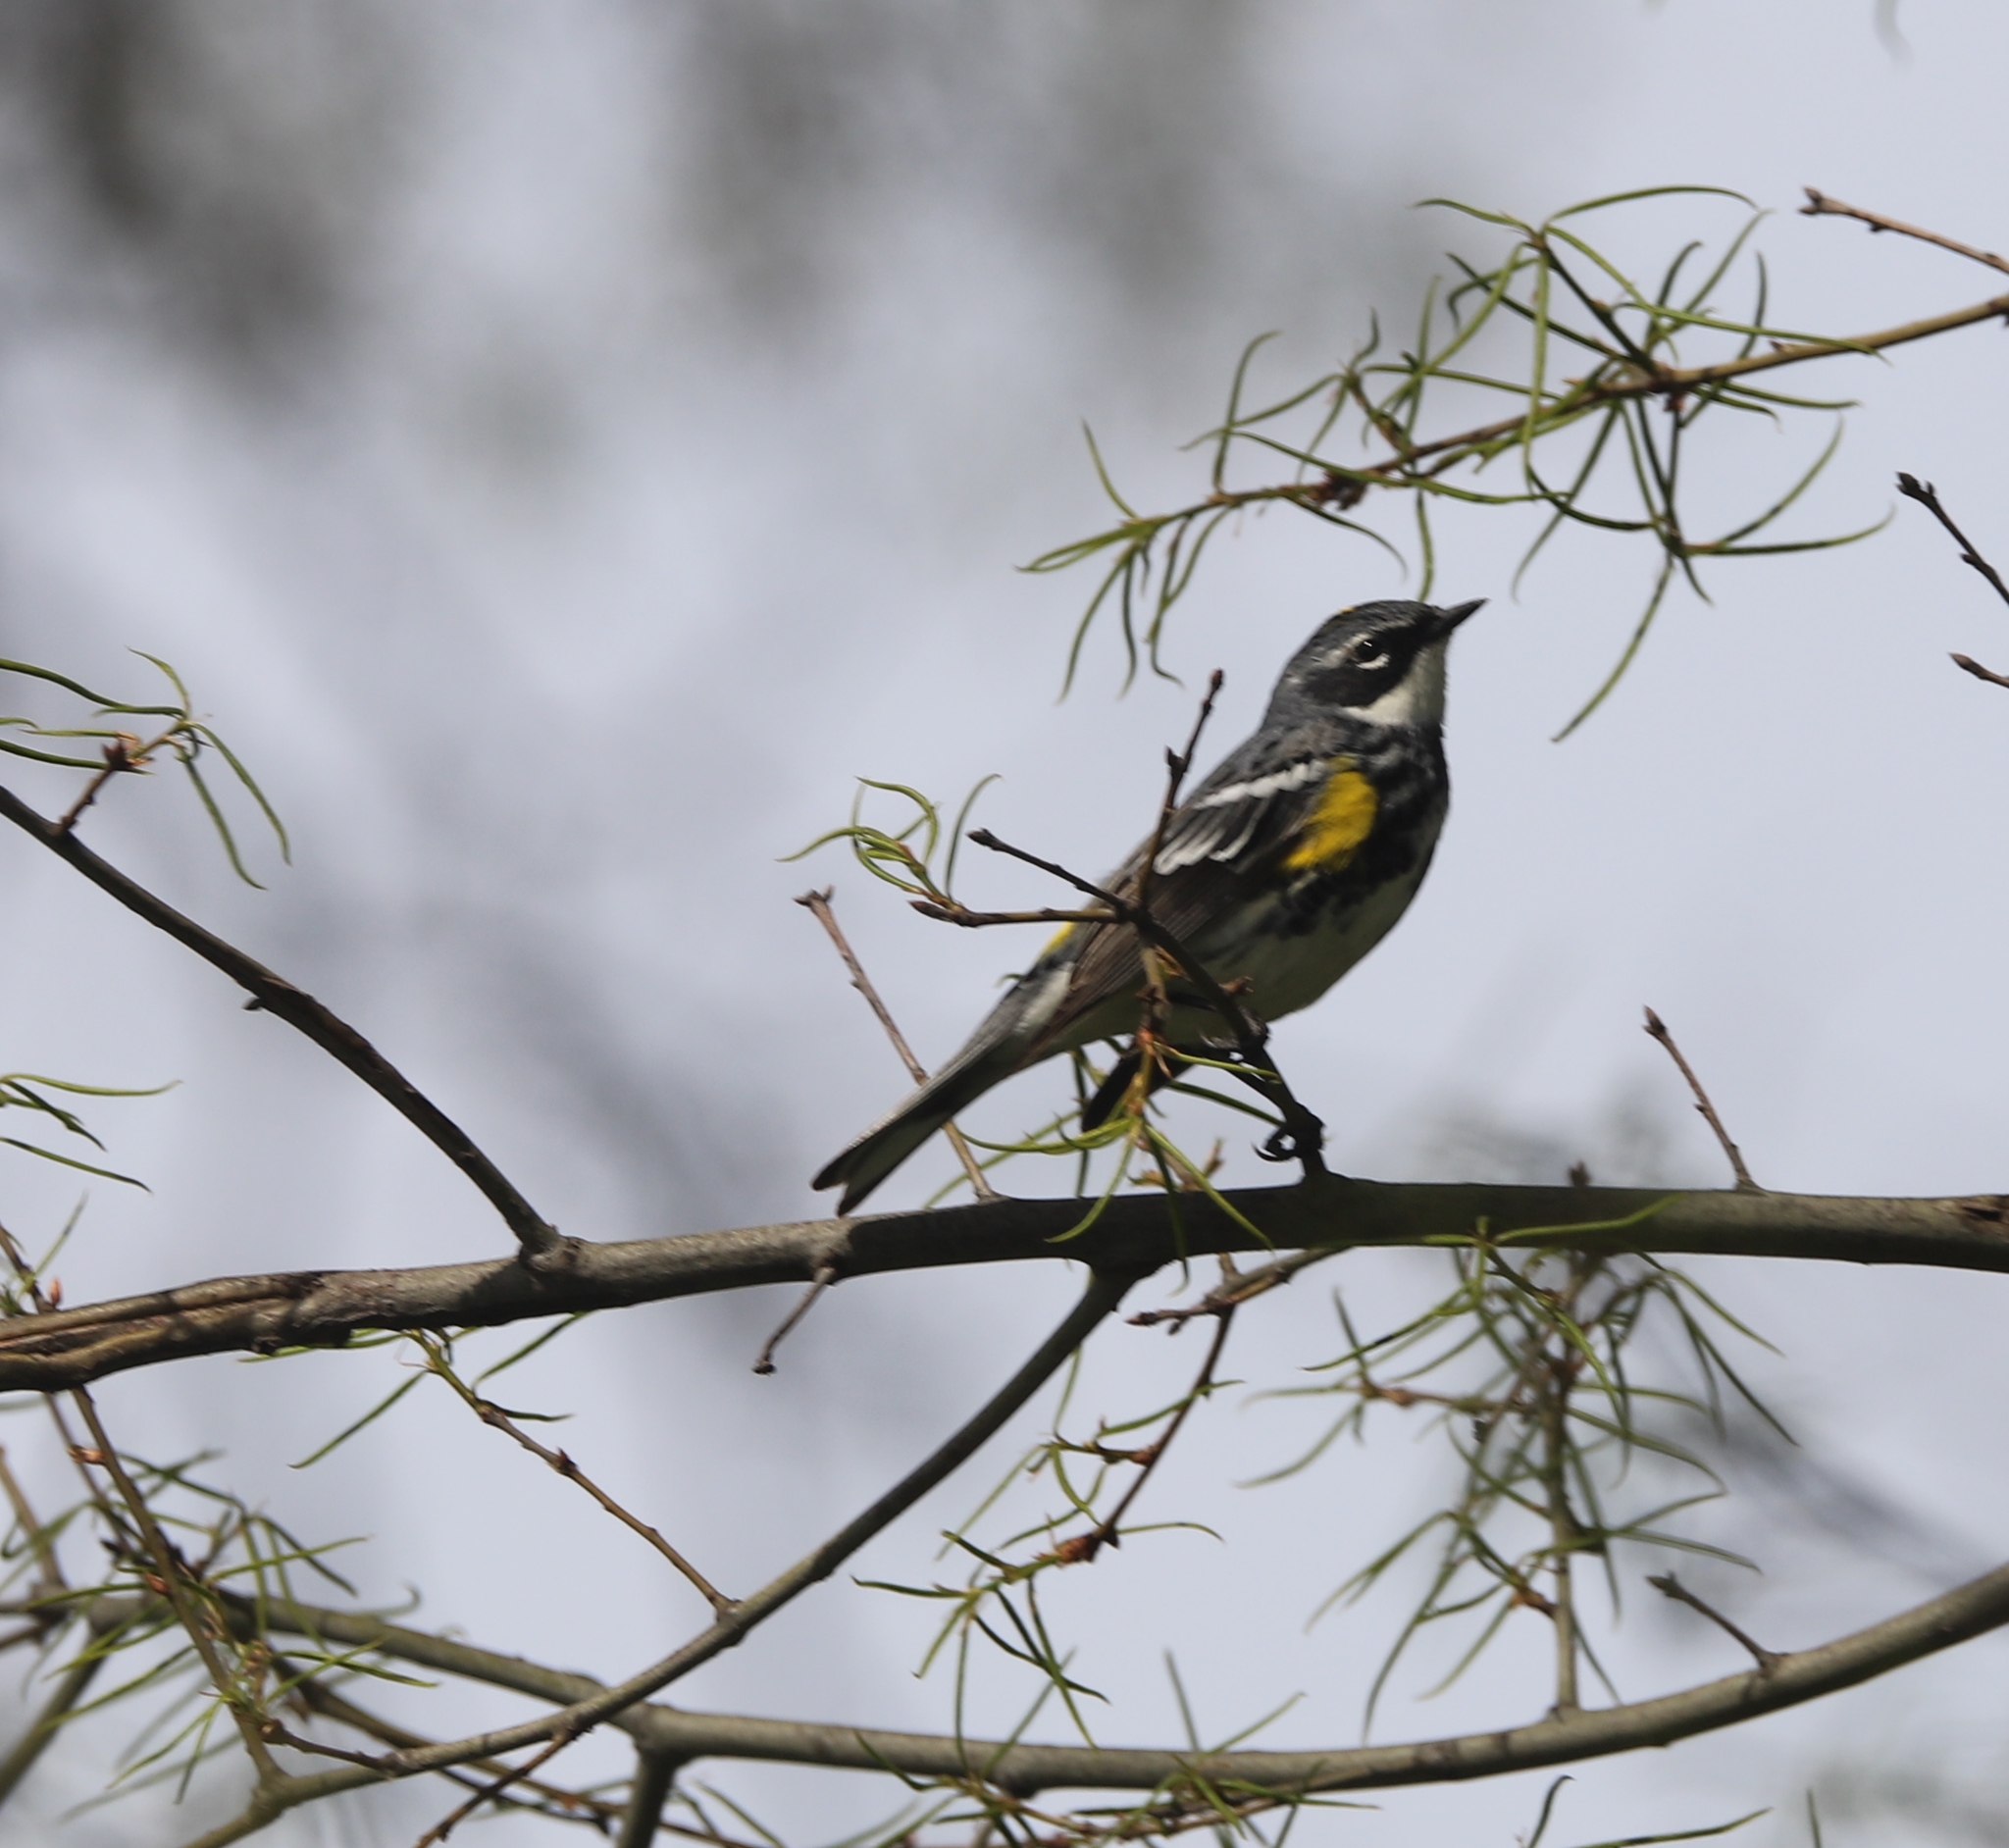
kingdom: Animalia
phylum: Chordata
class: Aves
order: Passeriformes
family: Parulidae
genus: Setophaga
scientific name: Setophaga coronata
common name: Myrtle warbler
